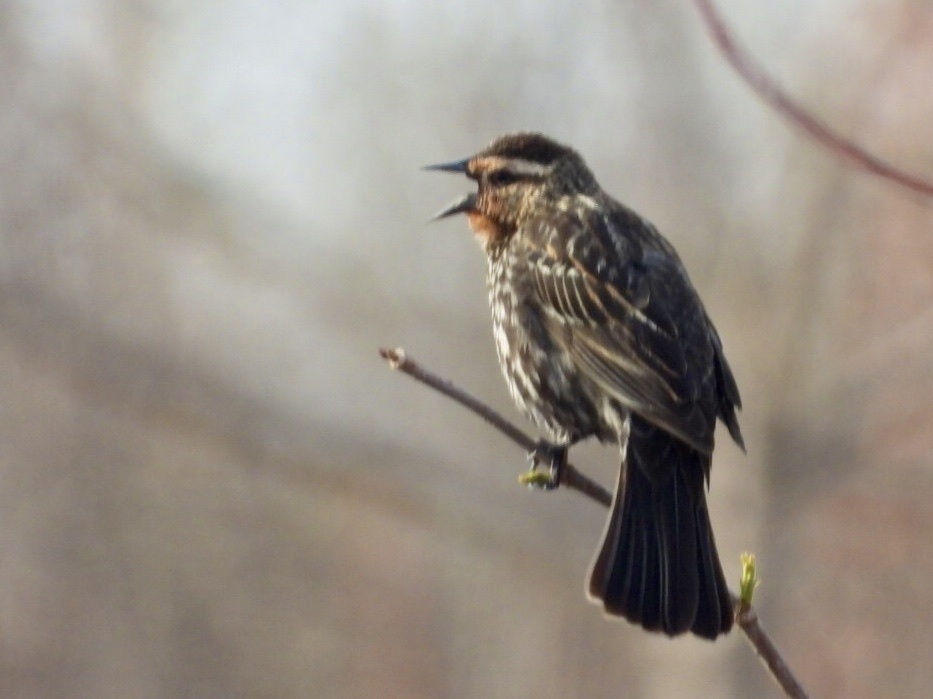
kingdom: Animalia
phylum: Chordata
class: Aves
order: Passeriformes
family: Icteridae
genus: Agelaius
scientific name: Agelaius phoeniceus
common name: Red-winged blackbird
